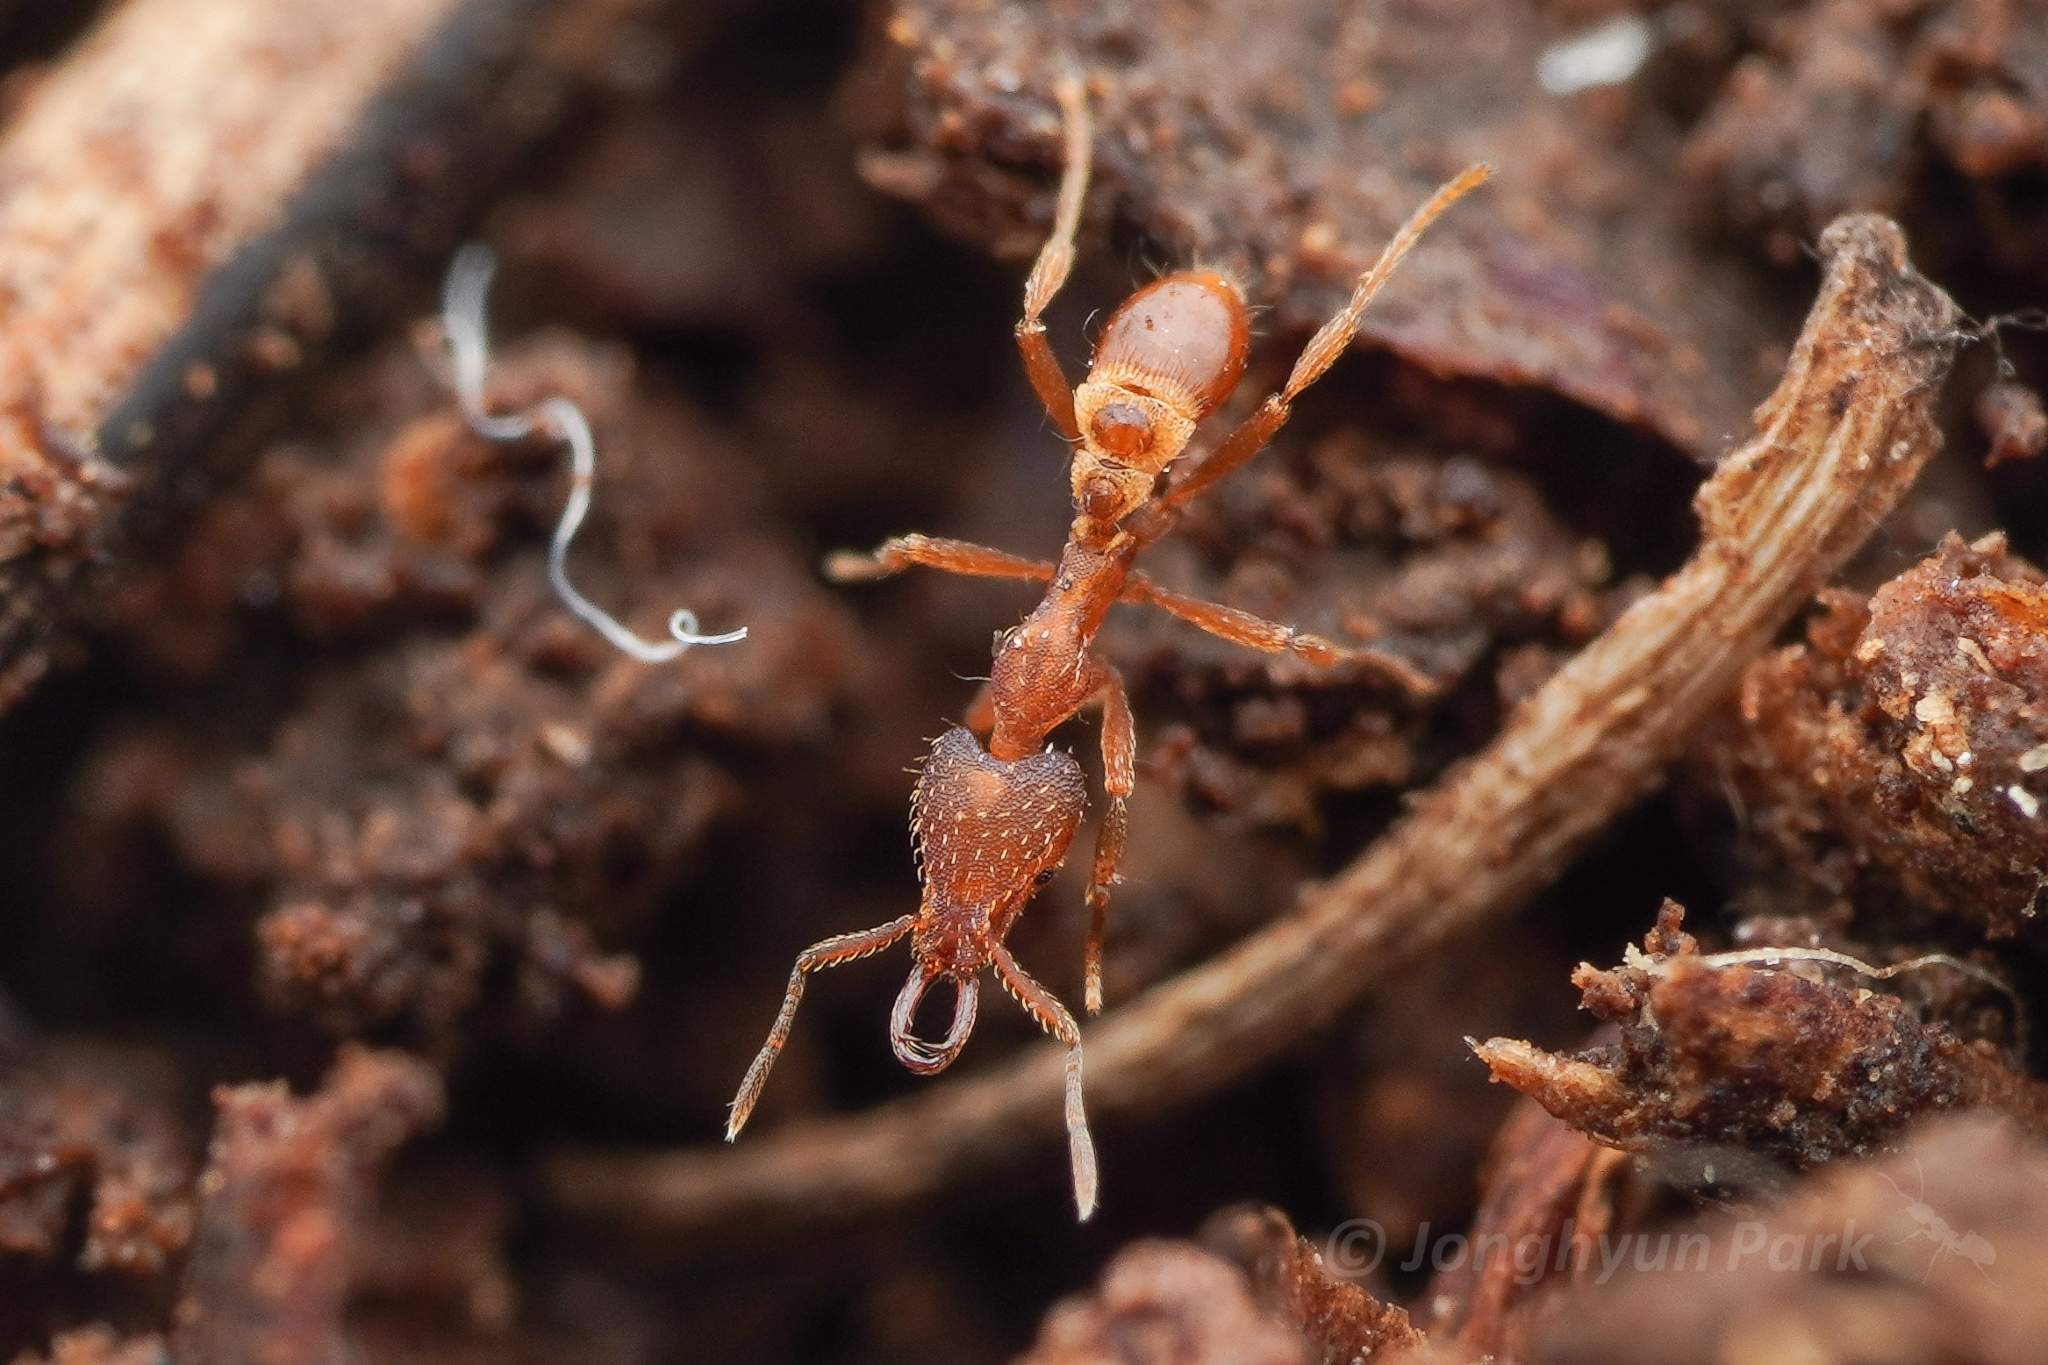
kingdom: Animalia
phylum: Arthropoda
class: Insecta
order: Hymenoptera
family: Formicidae
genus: Strumigenys
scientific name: Strumigenys lewisi
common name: Ant
